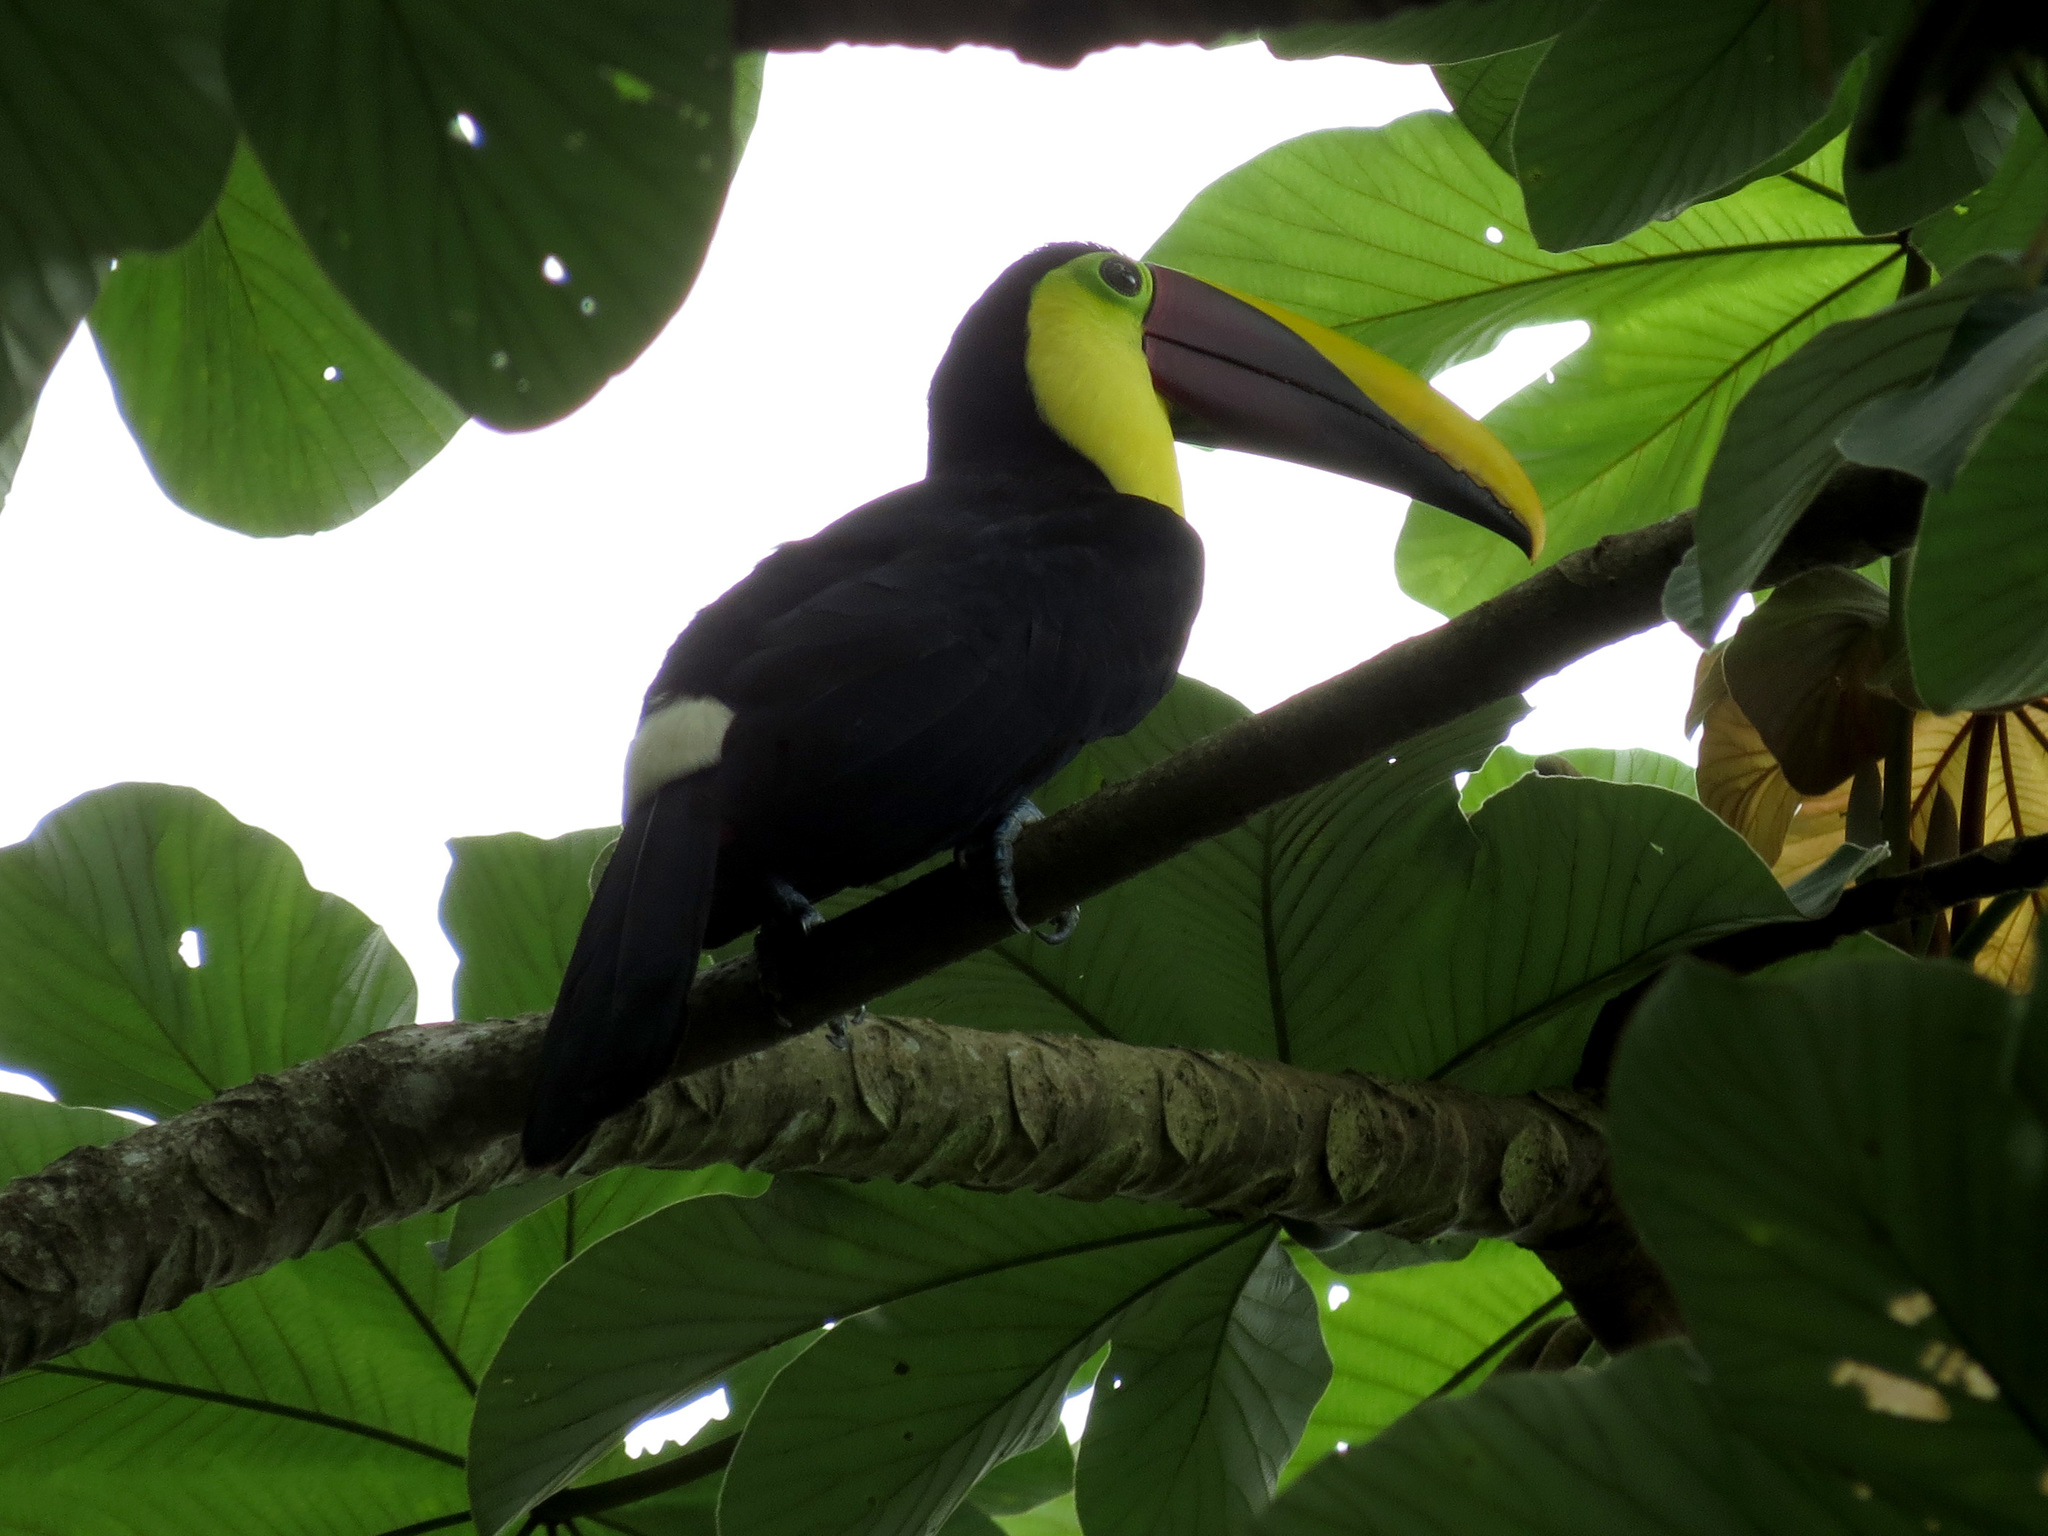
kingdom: Animalia
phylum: Chordata
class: Aves
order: Piciformes
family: Ramphastidae
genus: Ramphastos
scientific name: Ramphastos ambiguus
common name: Yellow-throated toucan
